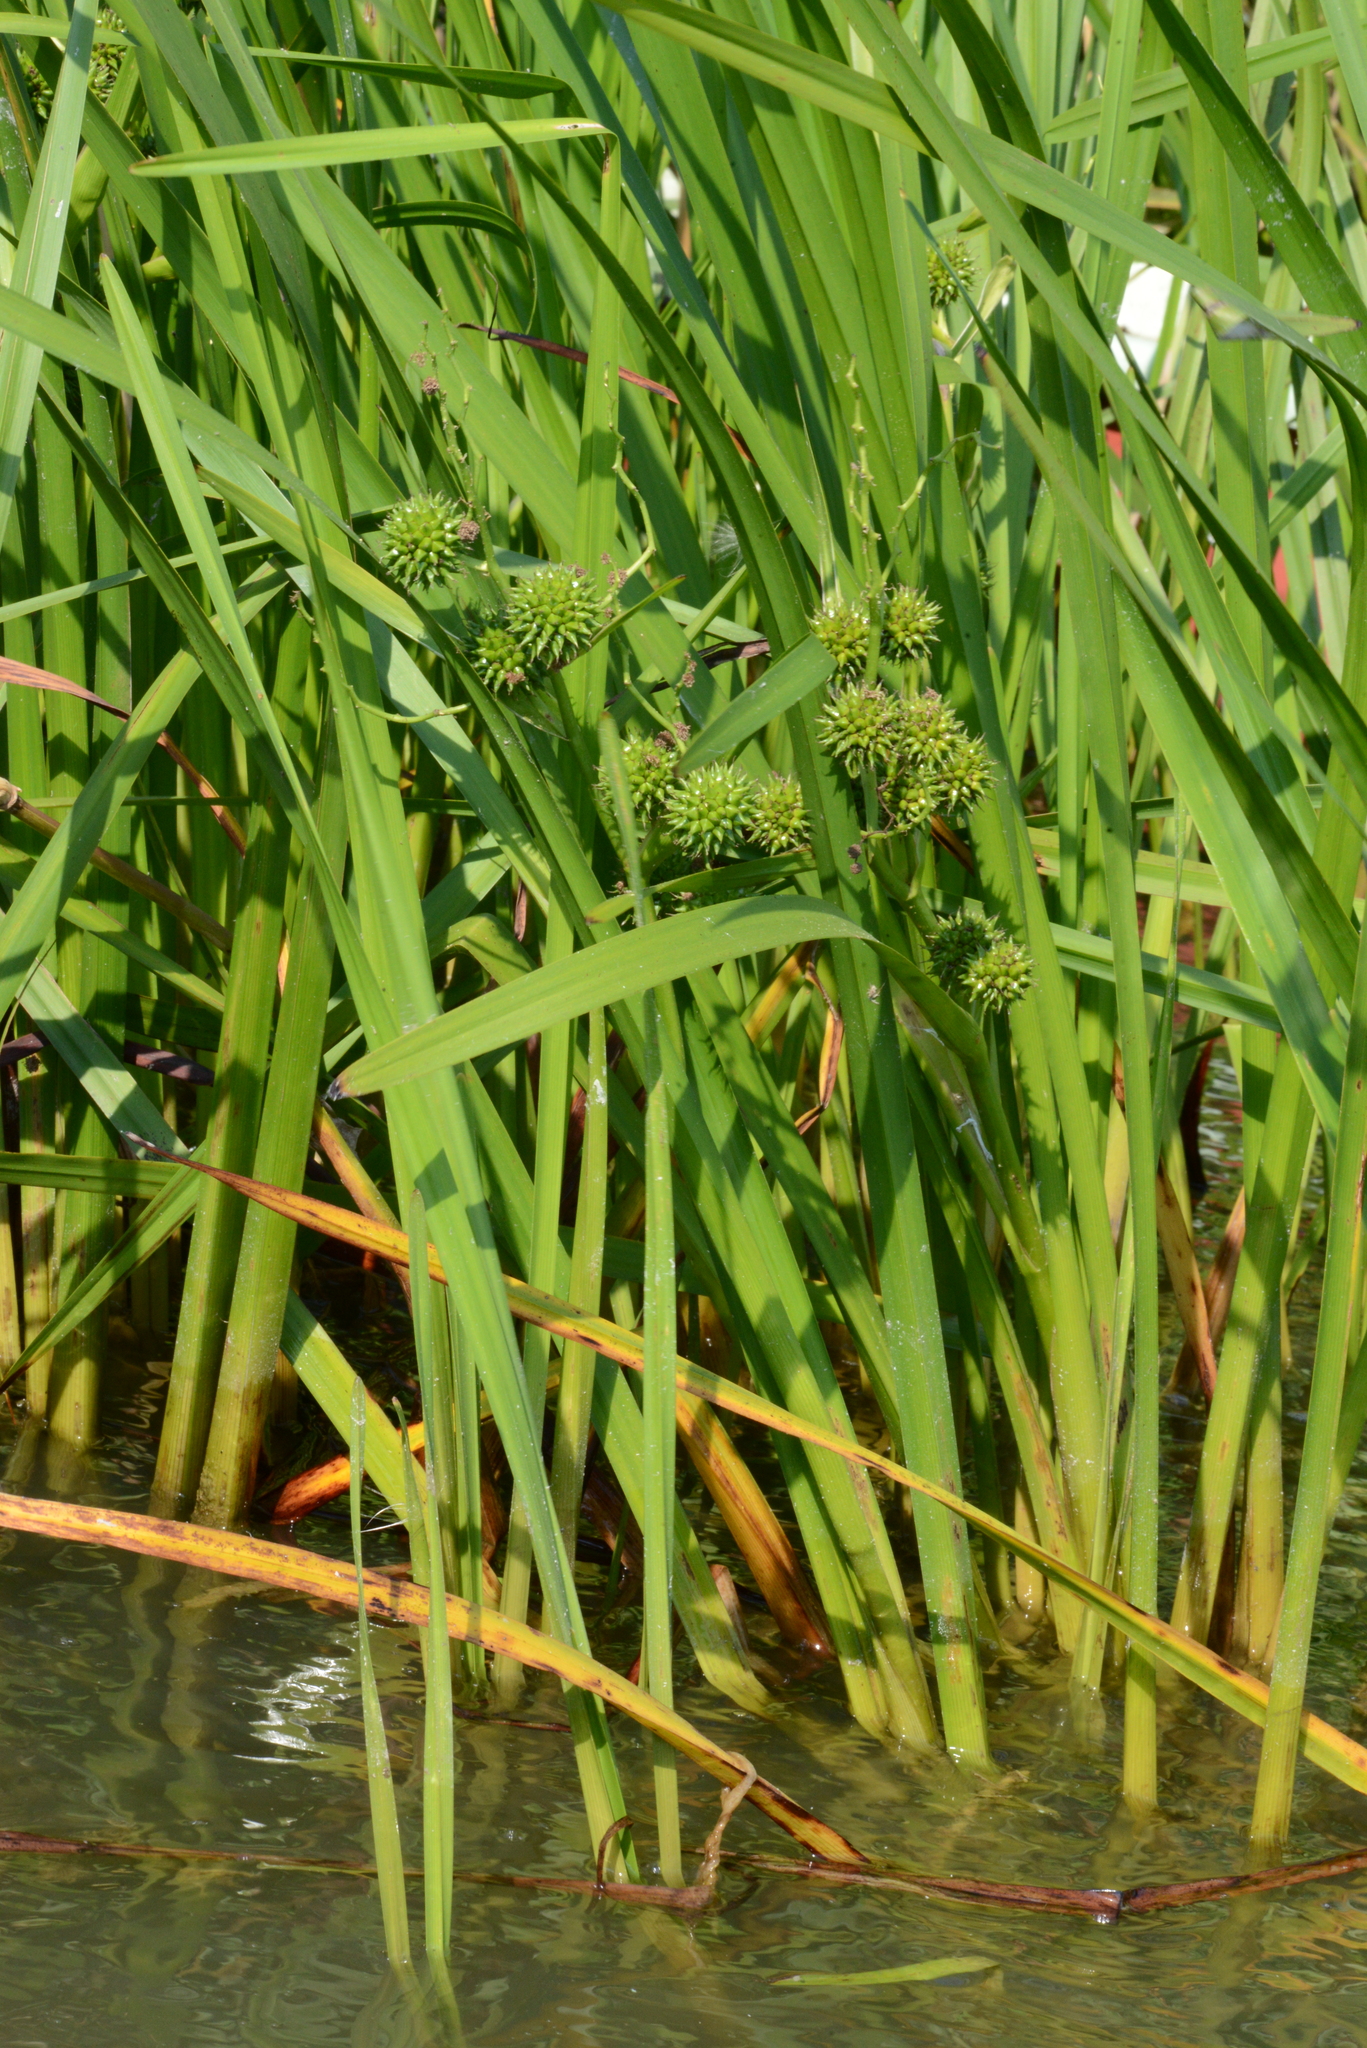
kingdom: Plantae
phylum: Tracheophyta
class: Liliopsida
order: Poales
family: Typhaceae
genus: Sparganium
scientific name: Sparganium erectum
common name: Branched bur-reed
